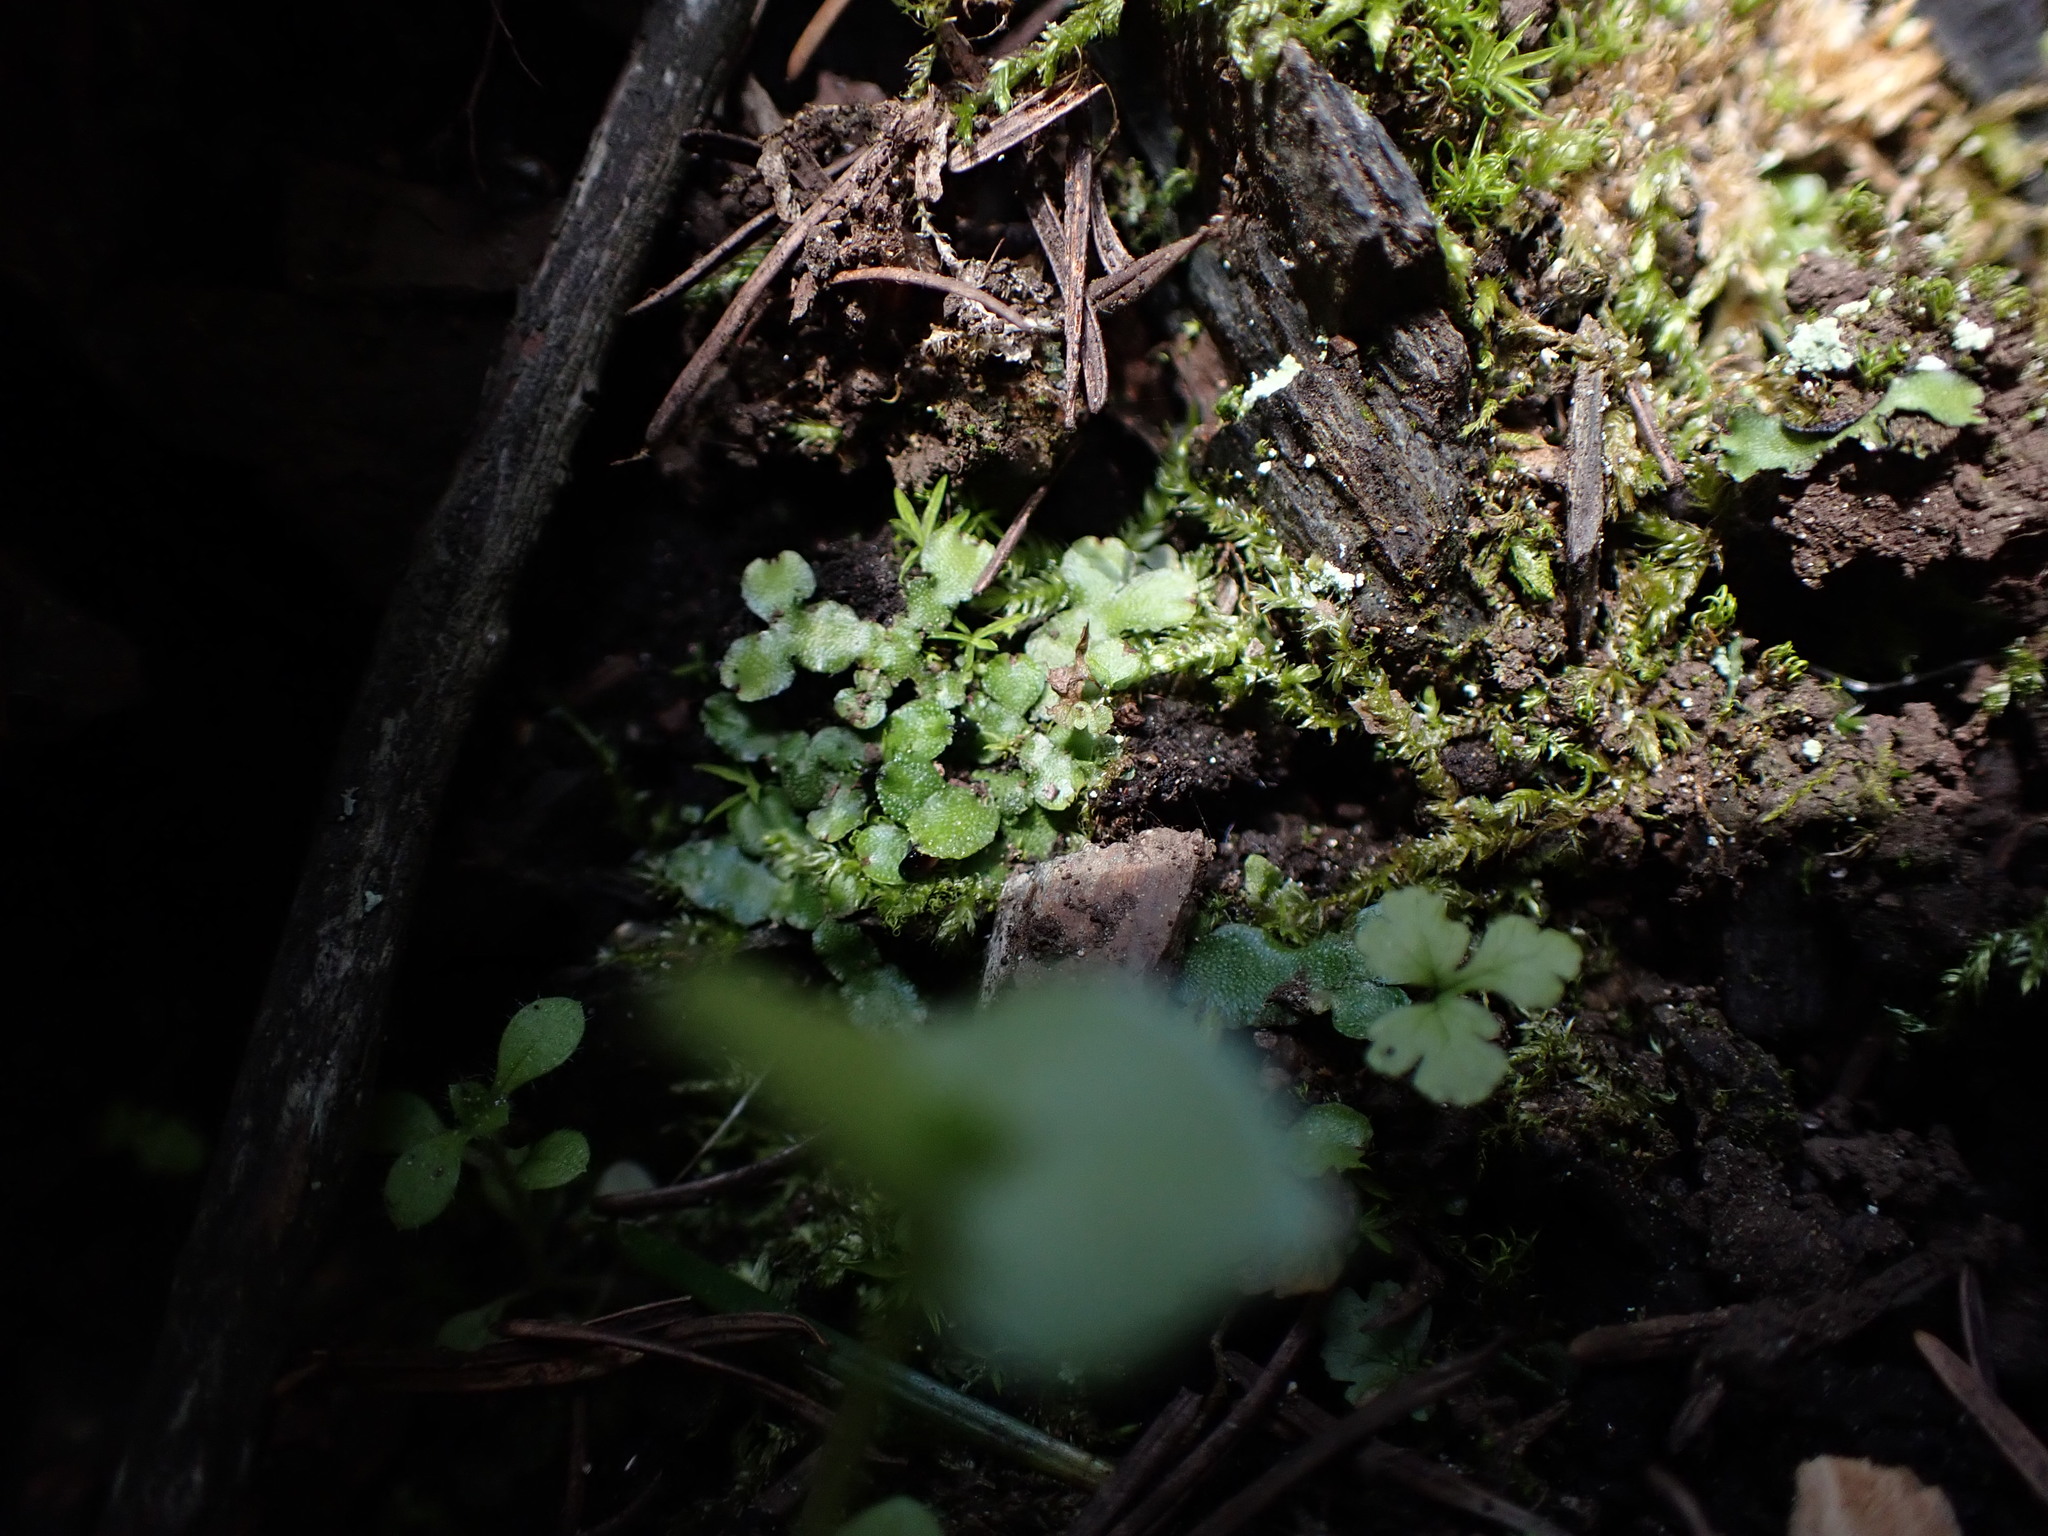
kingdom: Plantae
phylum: Marchantiophyta
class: Marchantiopsida
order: Marchantiales
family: Targioniaceae
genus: Targionia
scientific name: Targionia hypophylla
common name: Orobus-seed liverwort
